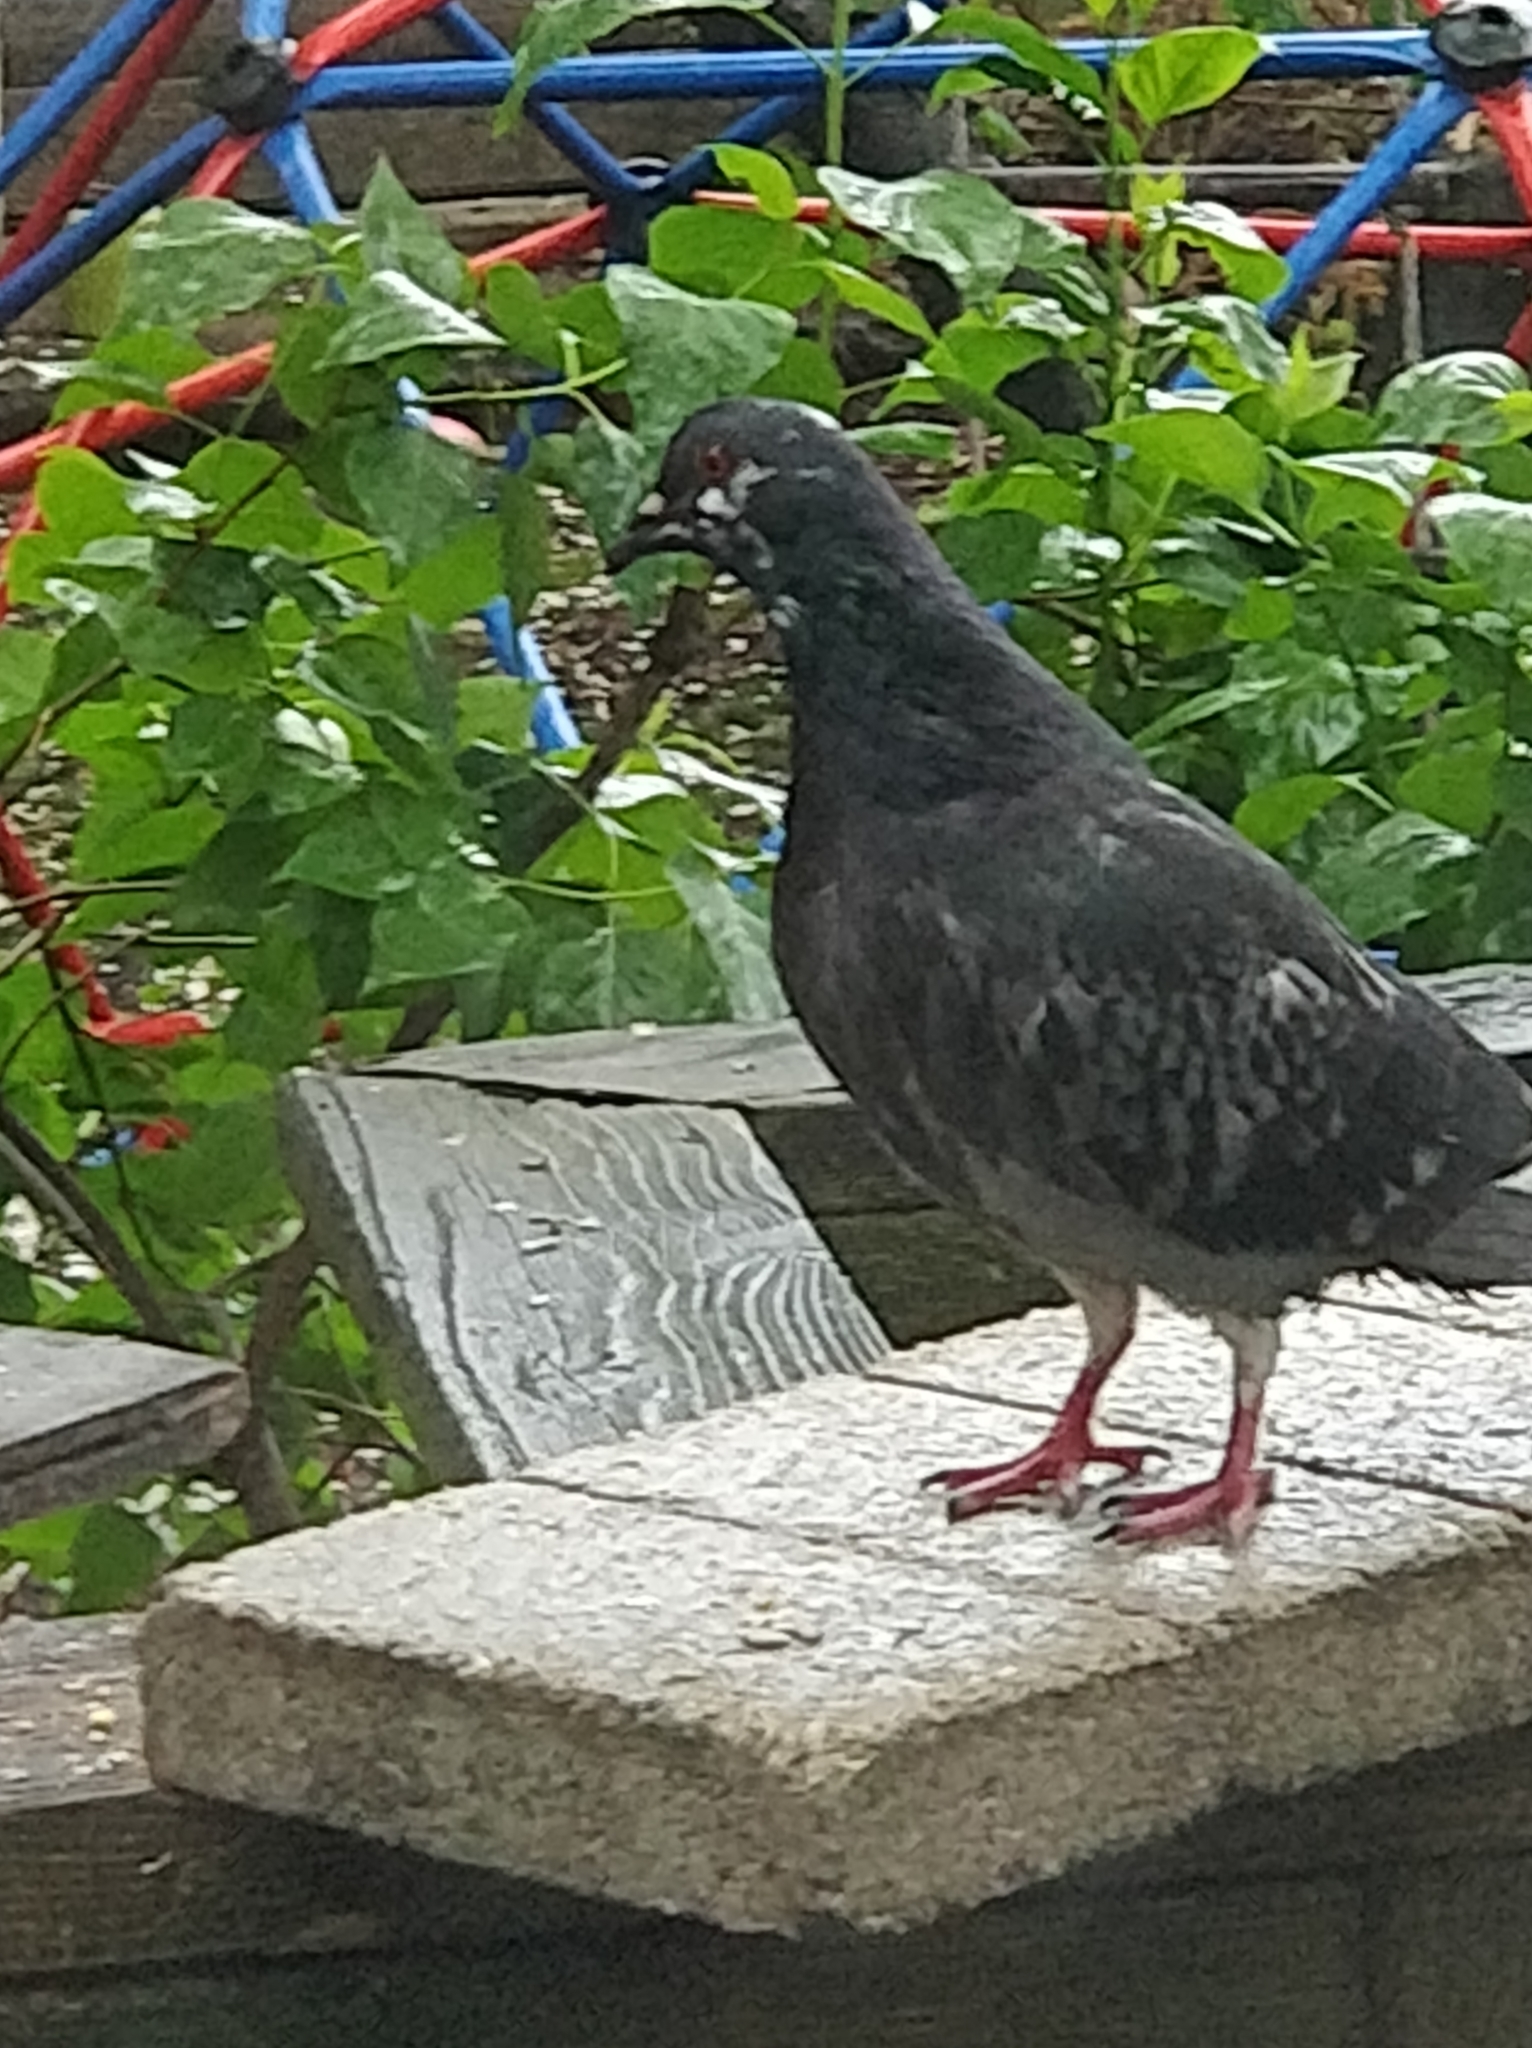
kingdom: Animalia
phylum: Chordata
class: Aves
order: Columbiformes
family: Columbidae
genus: Columba
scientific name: Columba livia
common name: Rock pigeon
